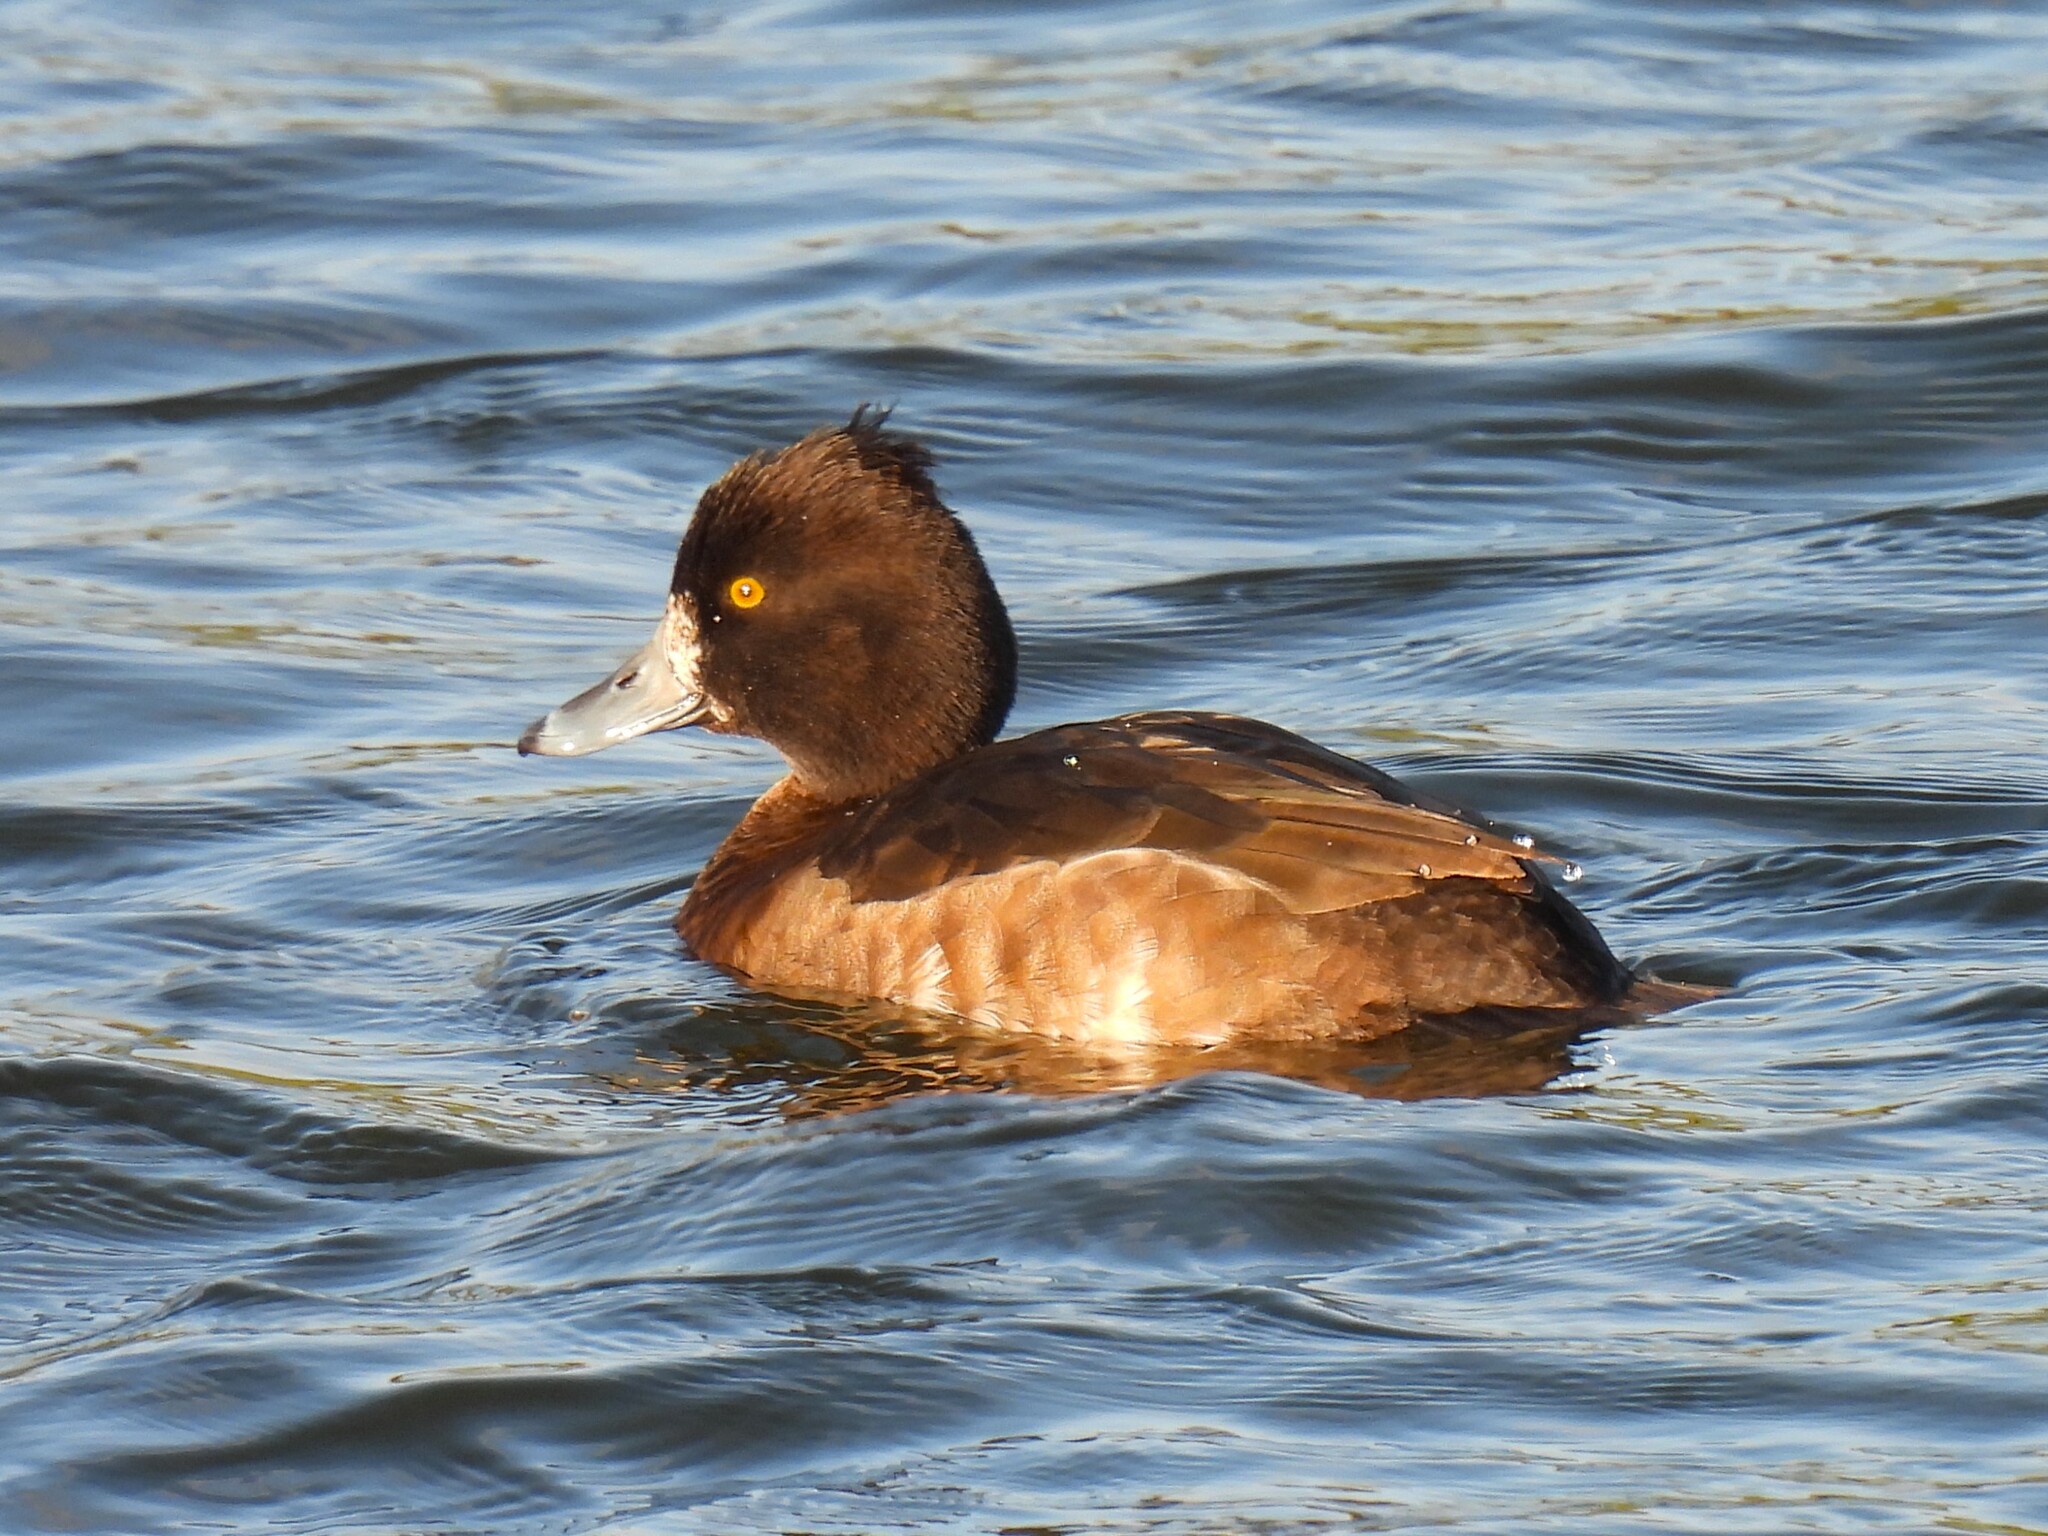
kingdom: Animalia
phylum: Chordata
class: Aves
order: Anseriformes
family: Anatidae
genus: Aythya
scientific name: Aythya fuligula
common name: Tufted duck
